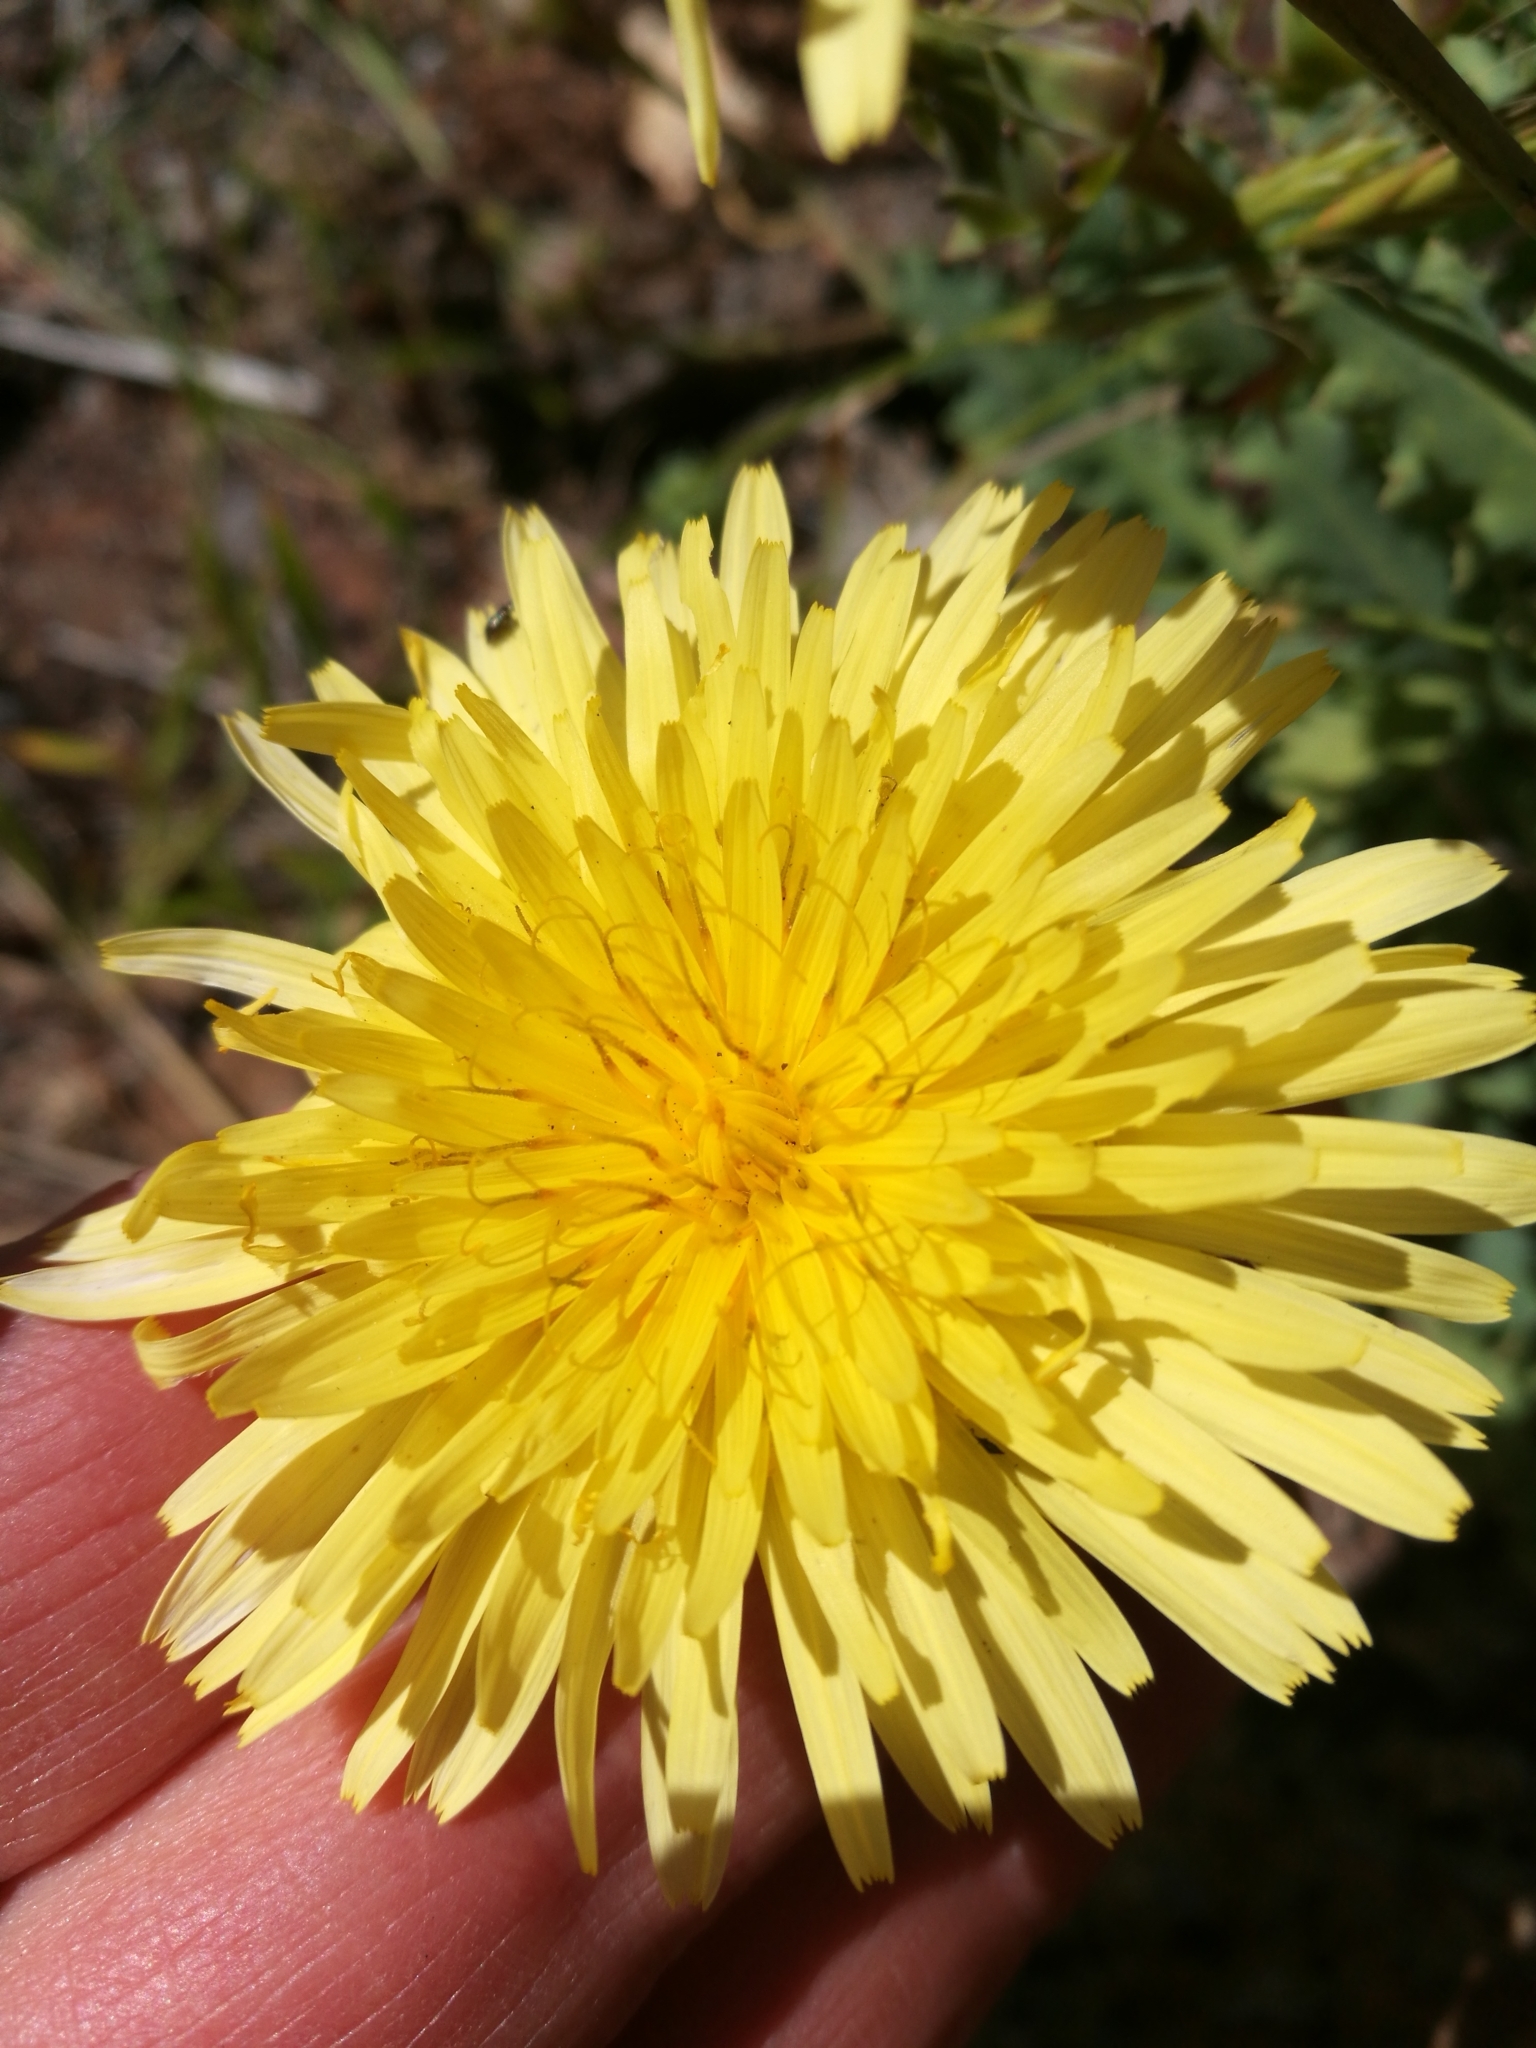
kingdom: Plantae
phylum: Tracheophyta
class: Magnoliopsida
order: Asterales
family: Asteraceae
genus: Reichardia
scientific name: Reichardia ligulata
